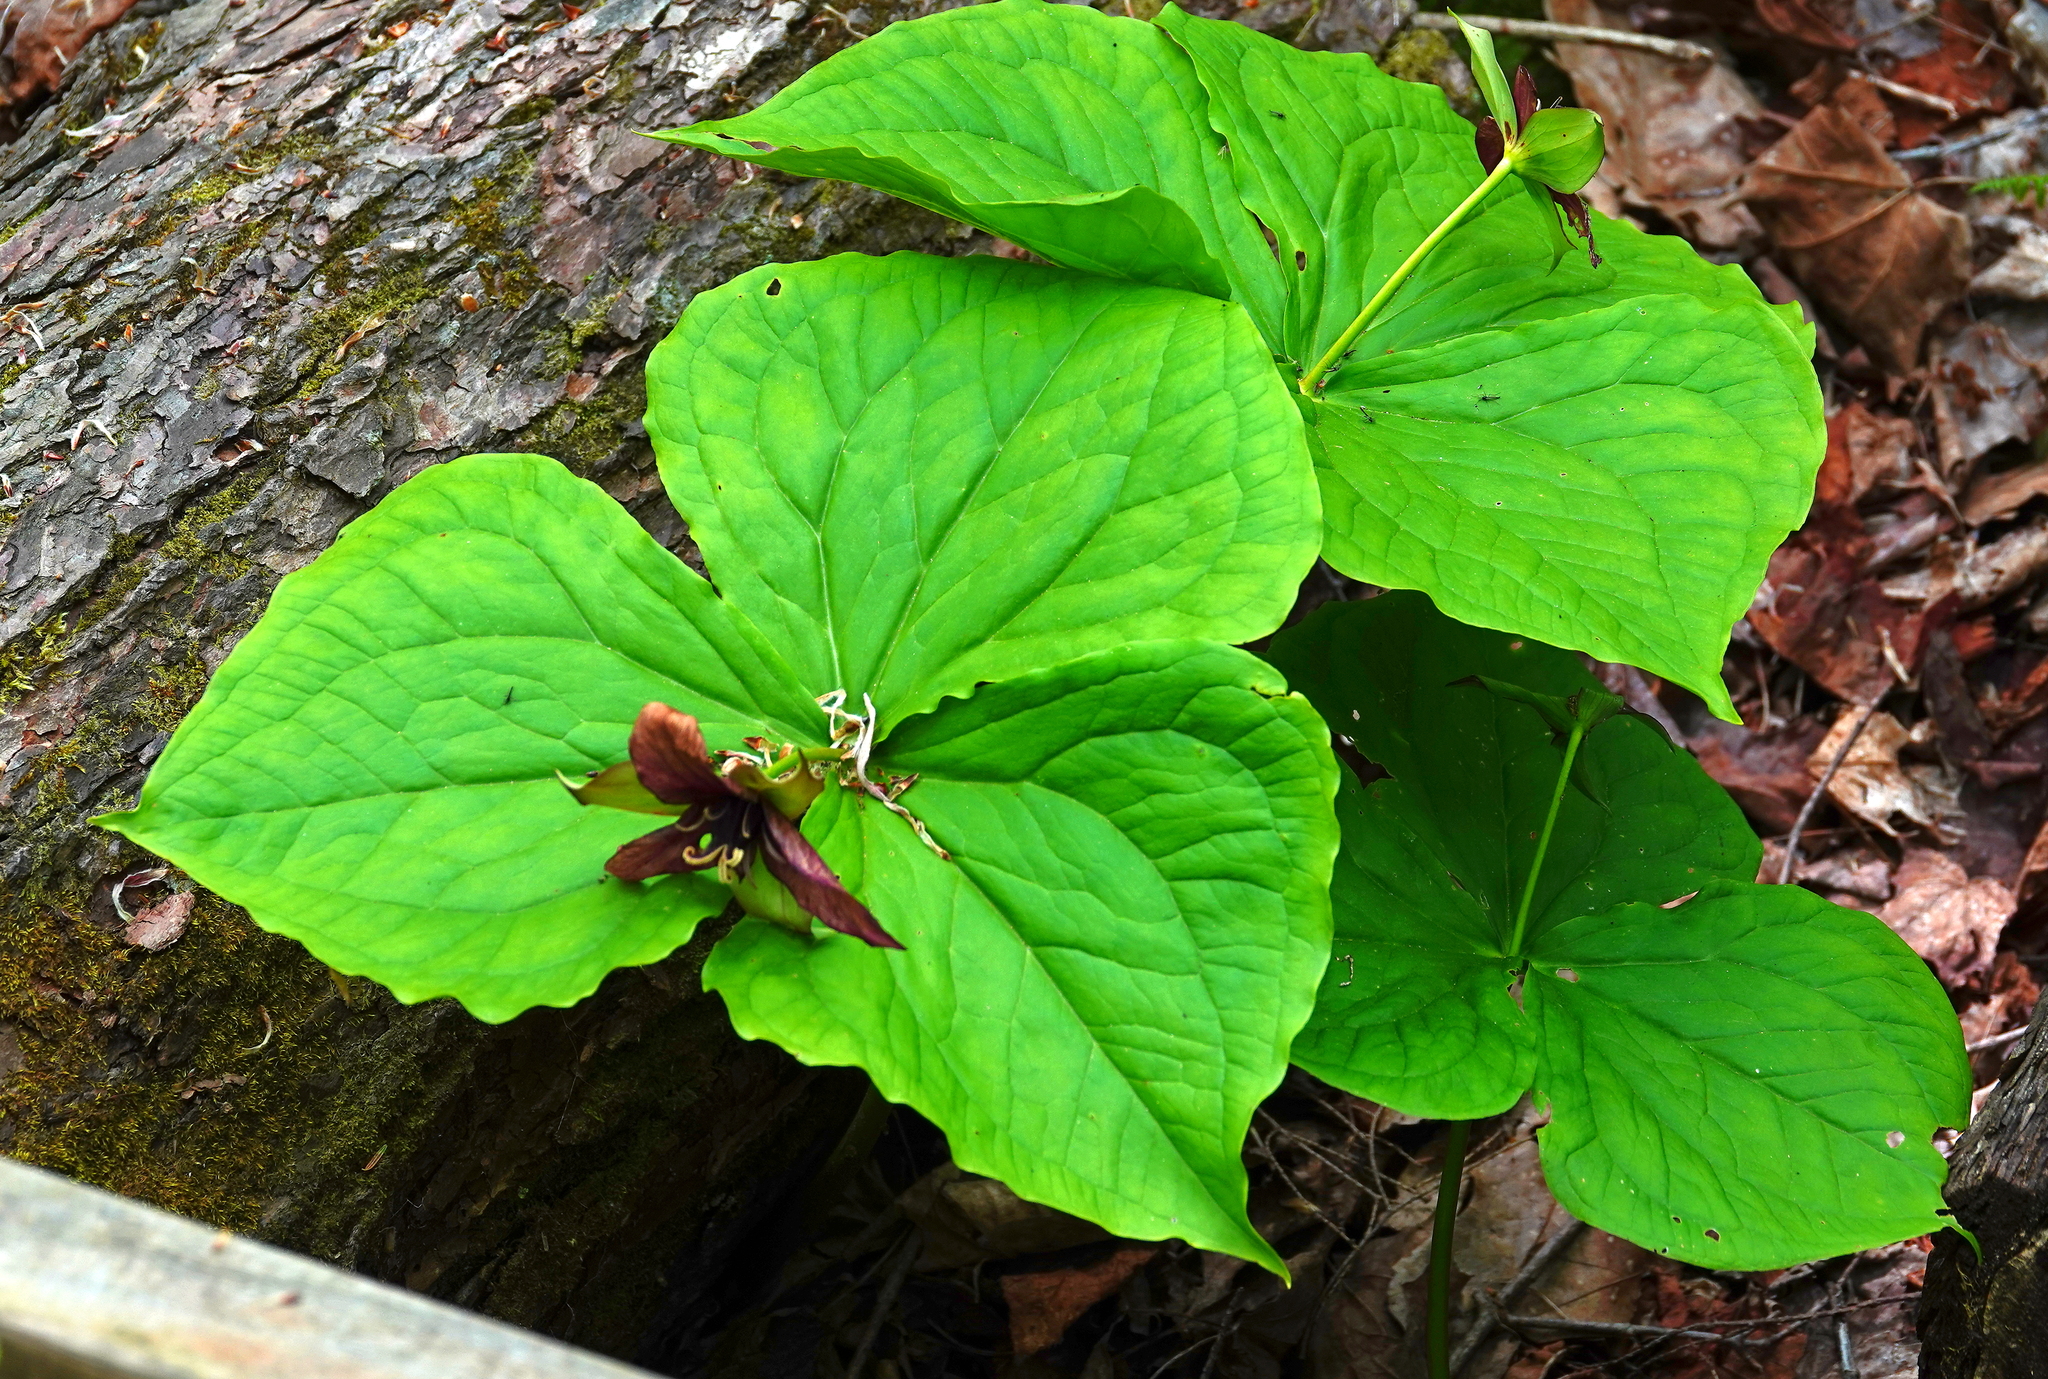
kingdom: Plantae
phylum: Tracheophyta
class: Liliopsida
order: Liliales
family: Melanthiaceae
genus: Trillium
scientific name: Trillium erectum
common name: Purple trillium
